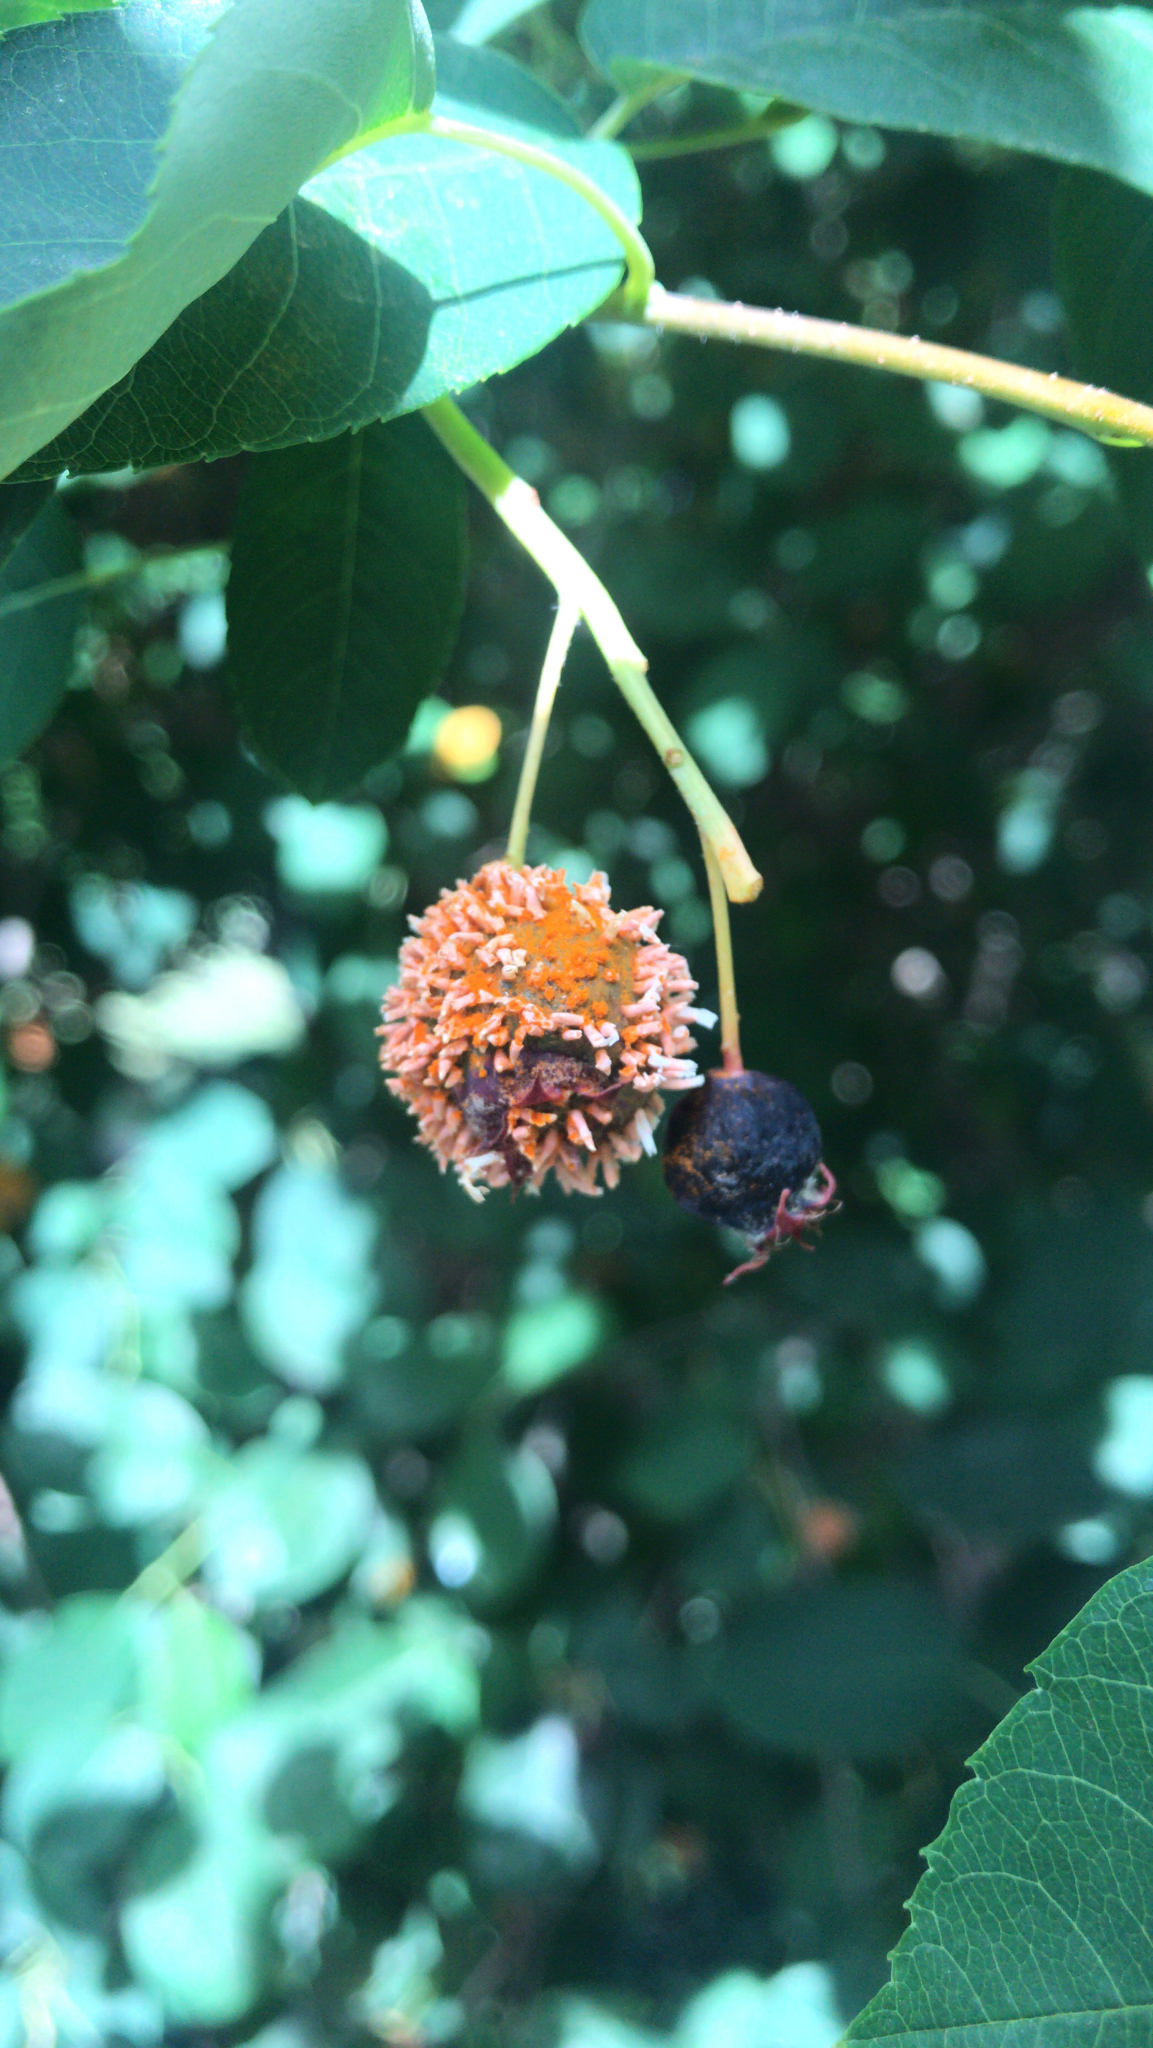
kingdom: Fungi
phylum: Basidiomycota
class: Pucciniomycetes
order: Pucciniales
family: Gymnosporangiaceae
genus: Gymnosporangium
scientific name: Gymnosporangium clavipes
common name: Quince rust
